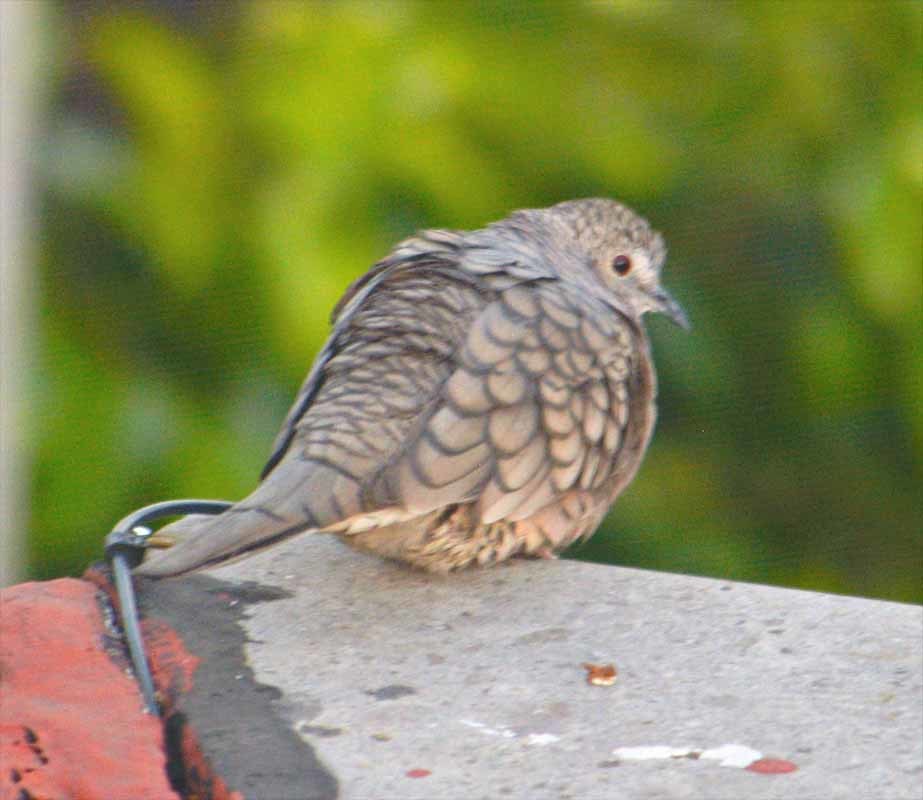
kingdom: Animalia
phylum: Chordata
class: Aves
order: Columbiformes
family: Columbidae
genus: Columbina
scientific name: Columbina inca
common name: Inca dove
